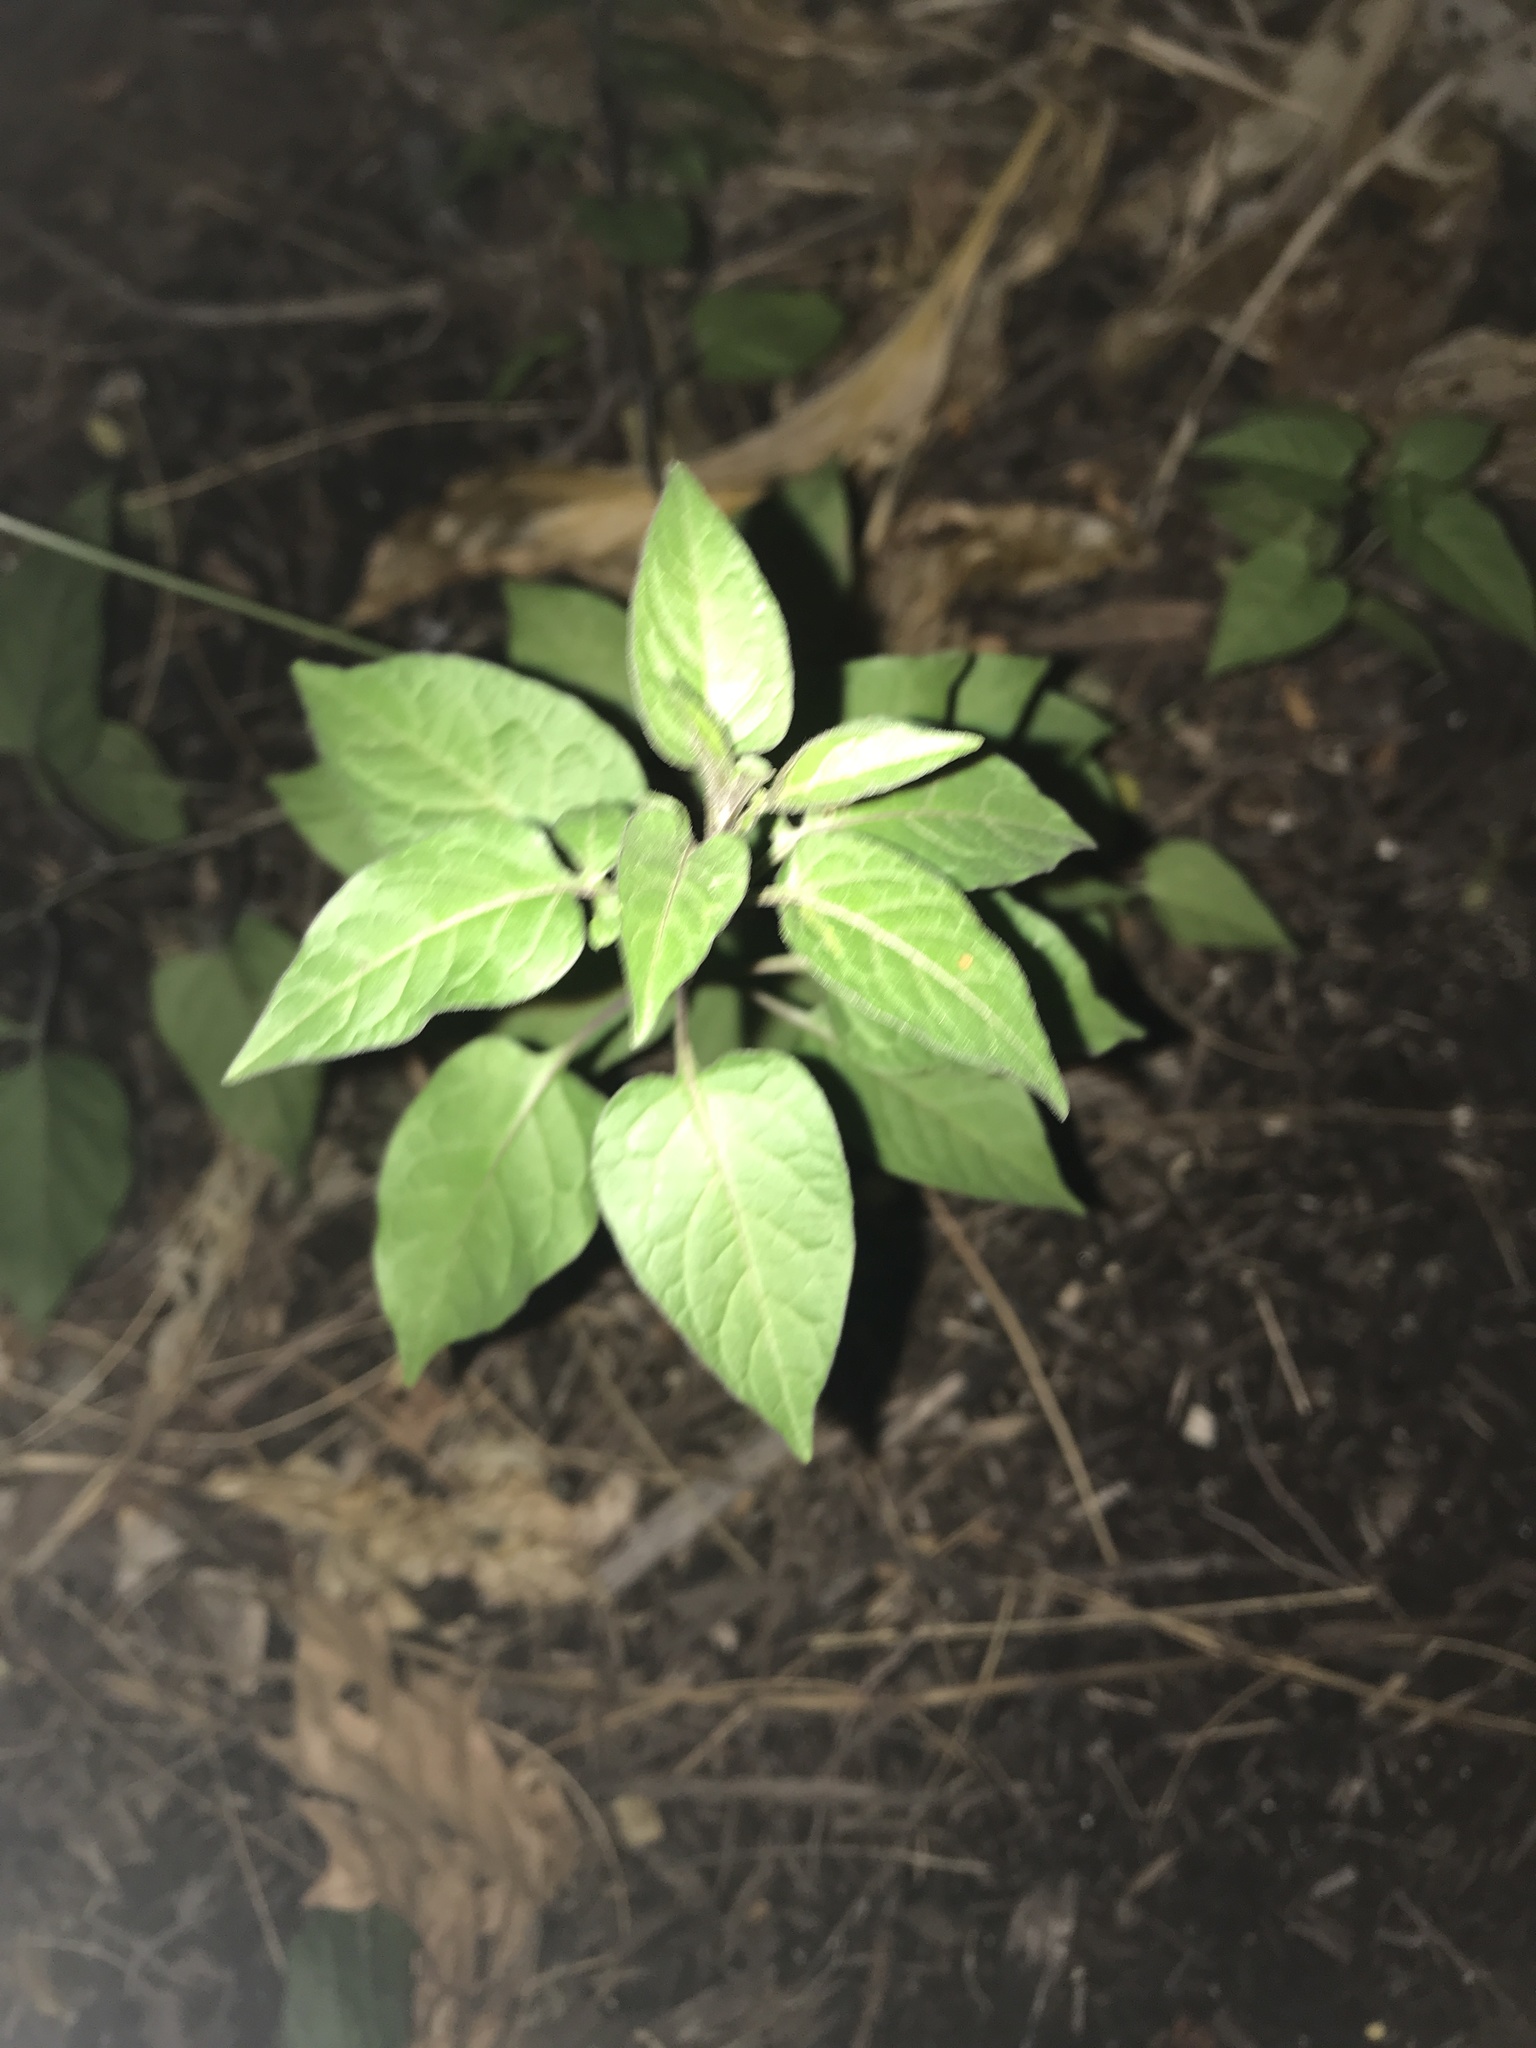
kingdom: Plantae
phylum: Tracheophyta
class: Magnoliopsida
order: Solanales
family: Solanaceae
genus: Solanum
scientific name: Solanum dulcamara
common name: Climbing nightshade
